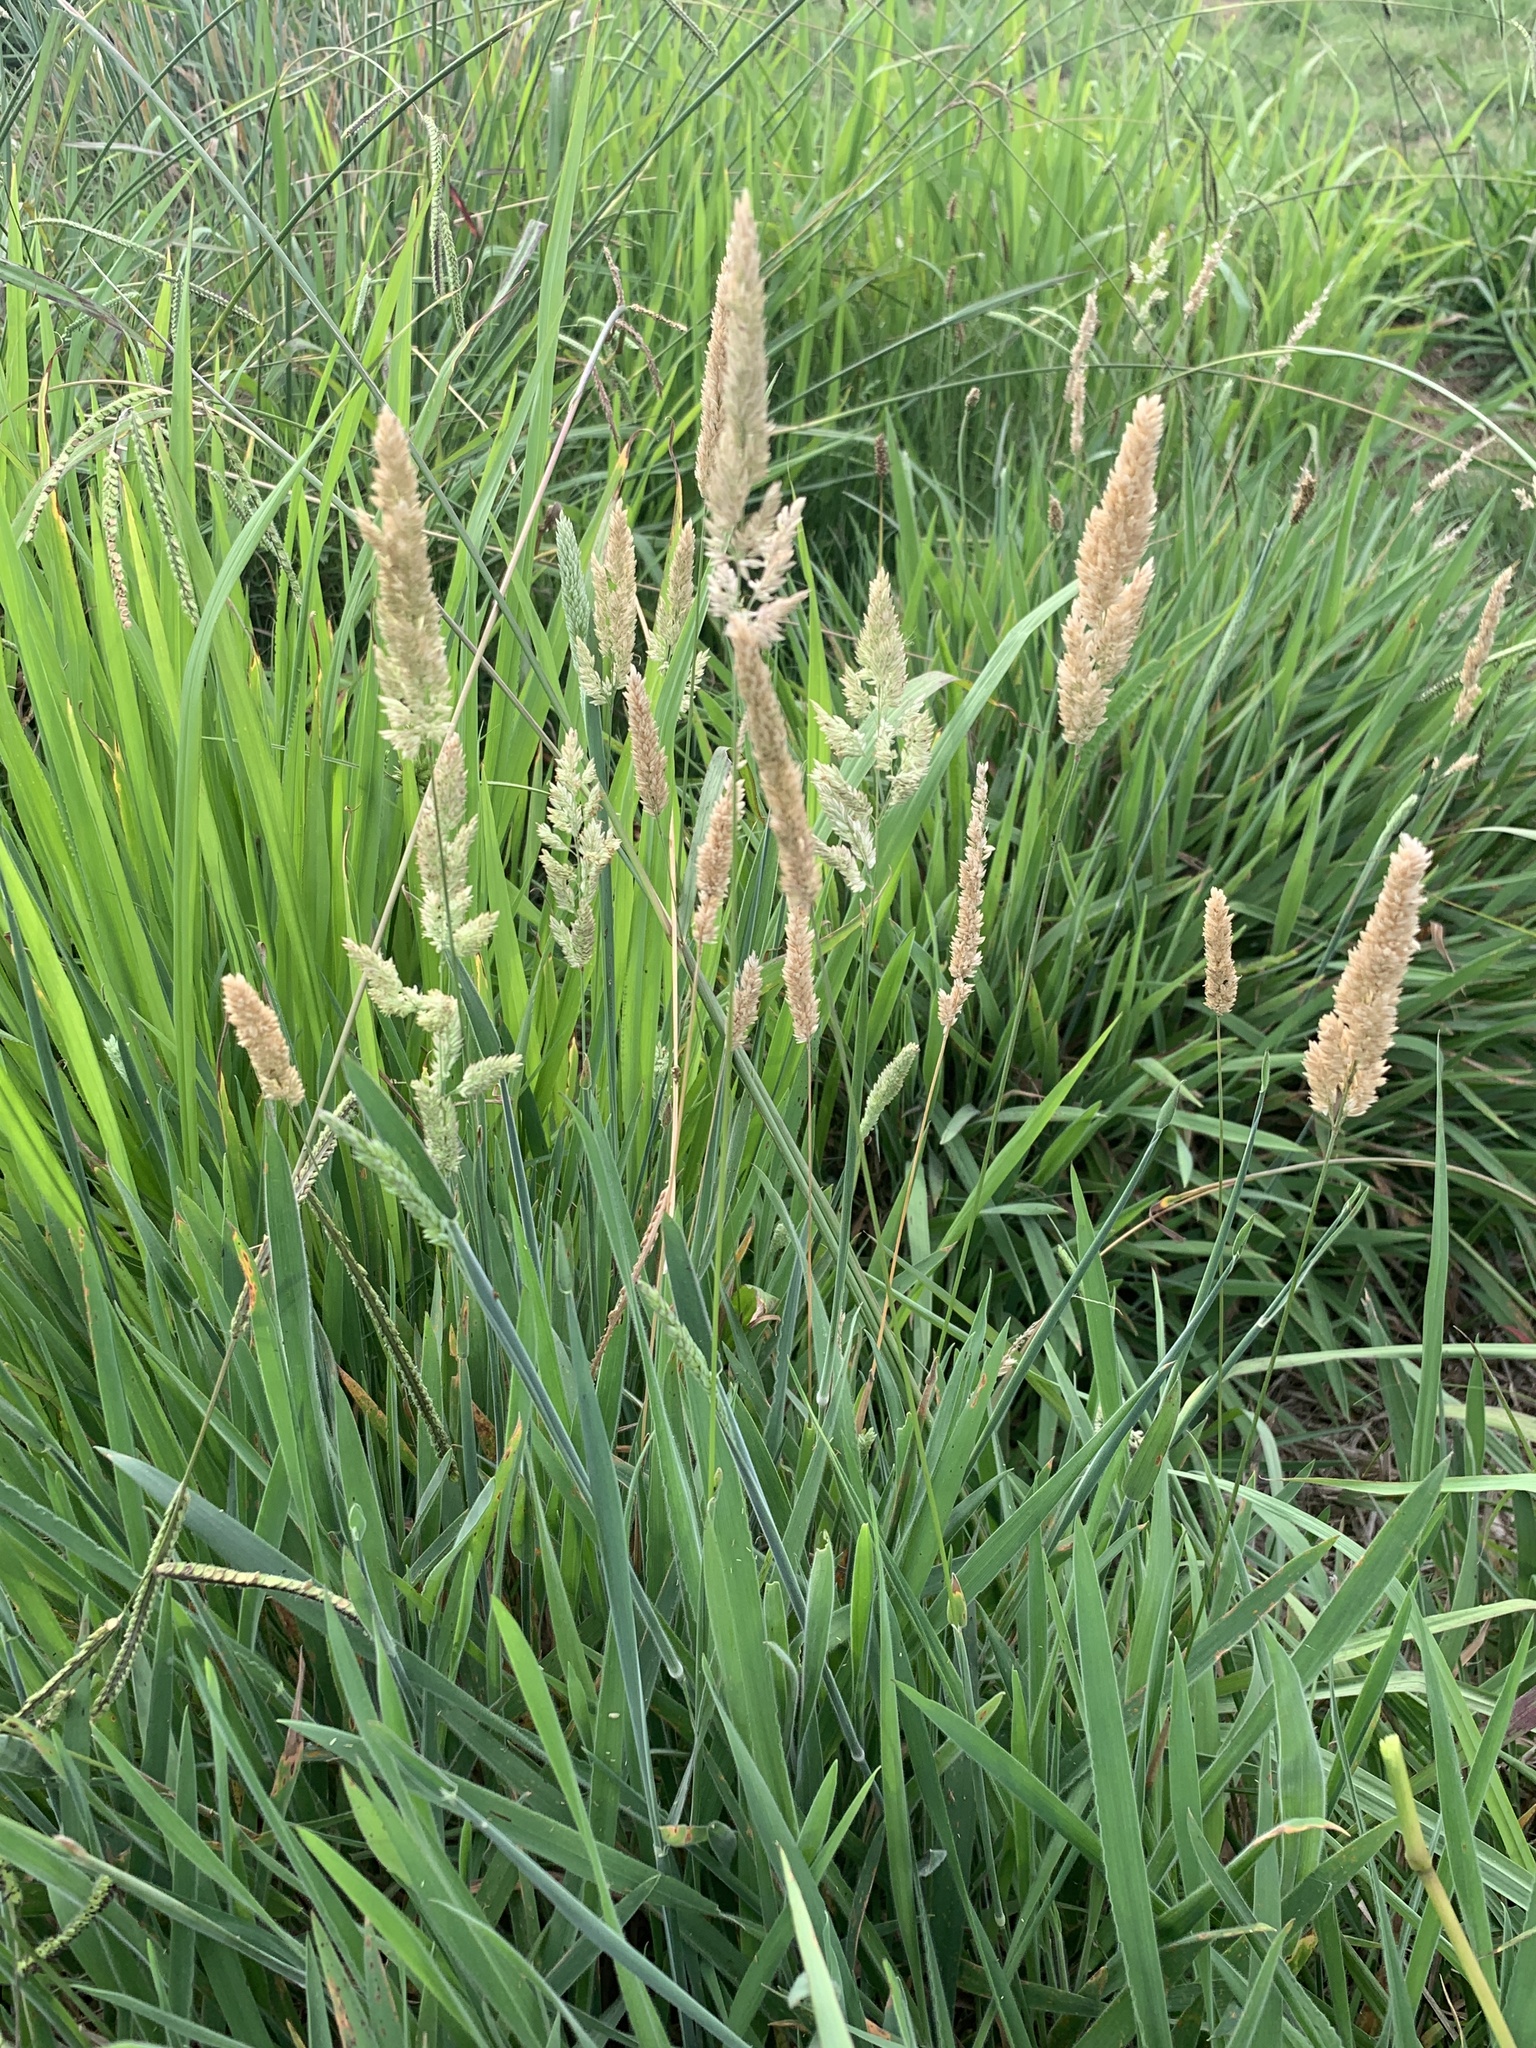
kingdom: Plantae
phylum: Tracheophyta
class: Liliopsida
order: Poales
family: Poaceae
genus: Holcus
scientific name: Holcus lanatus
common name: Yorkshire-fog
